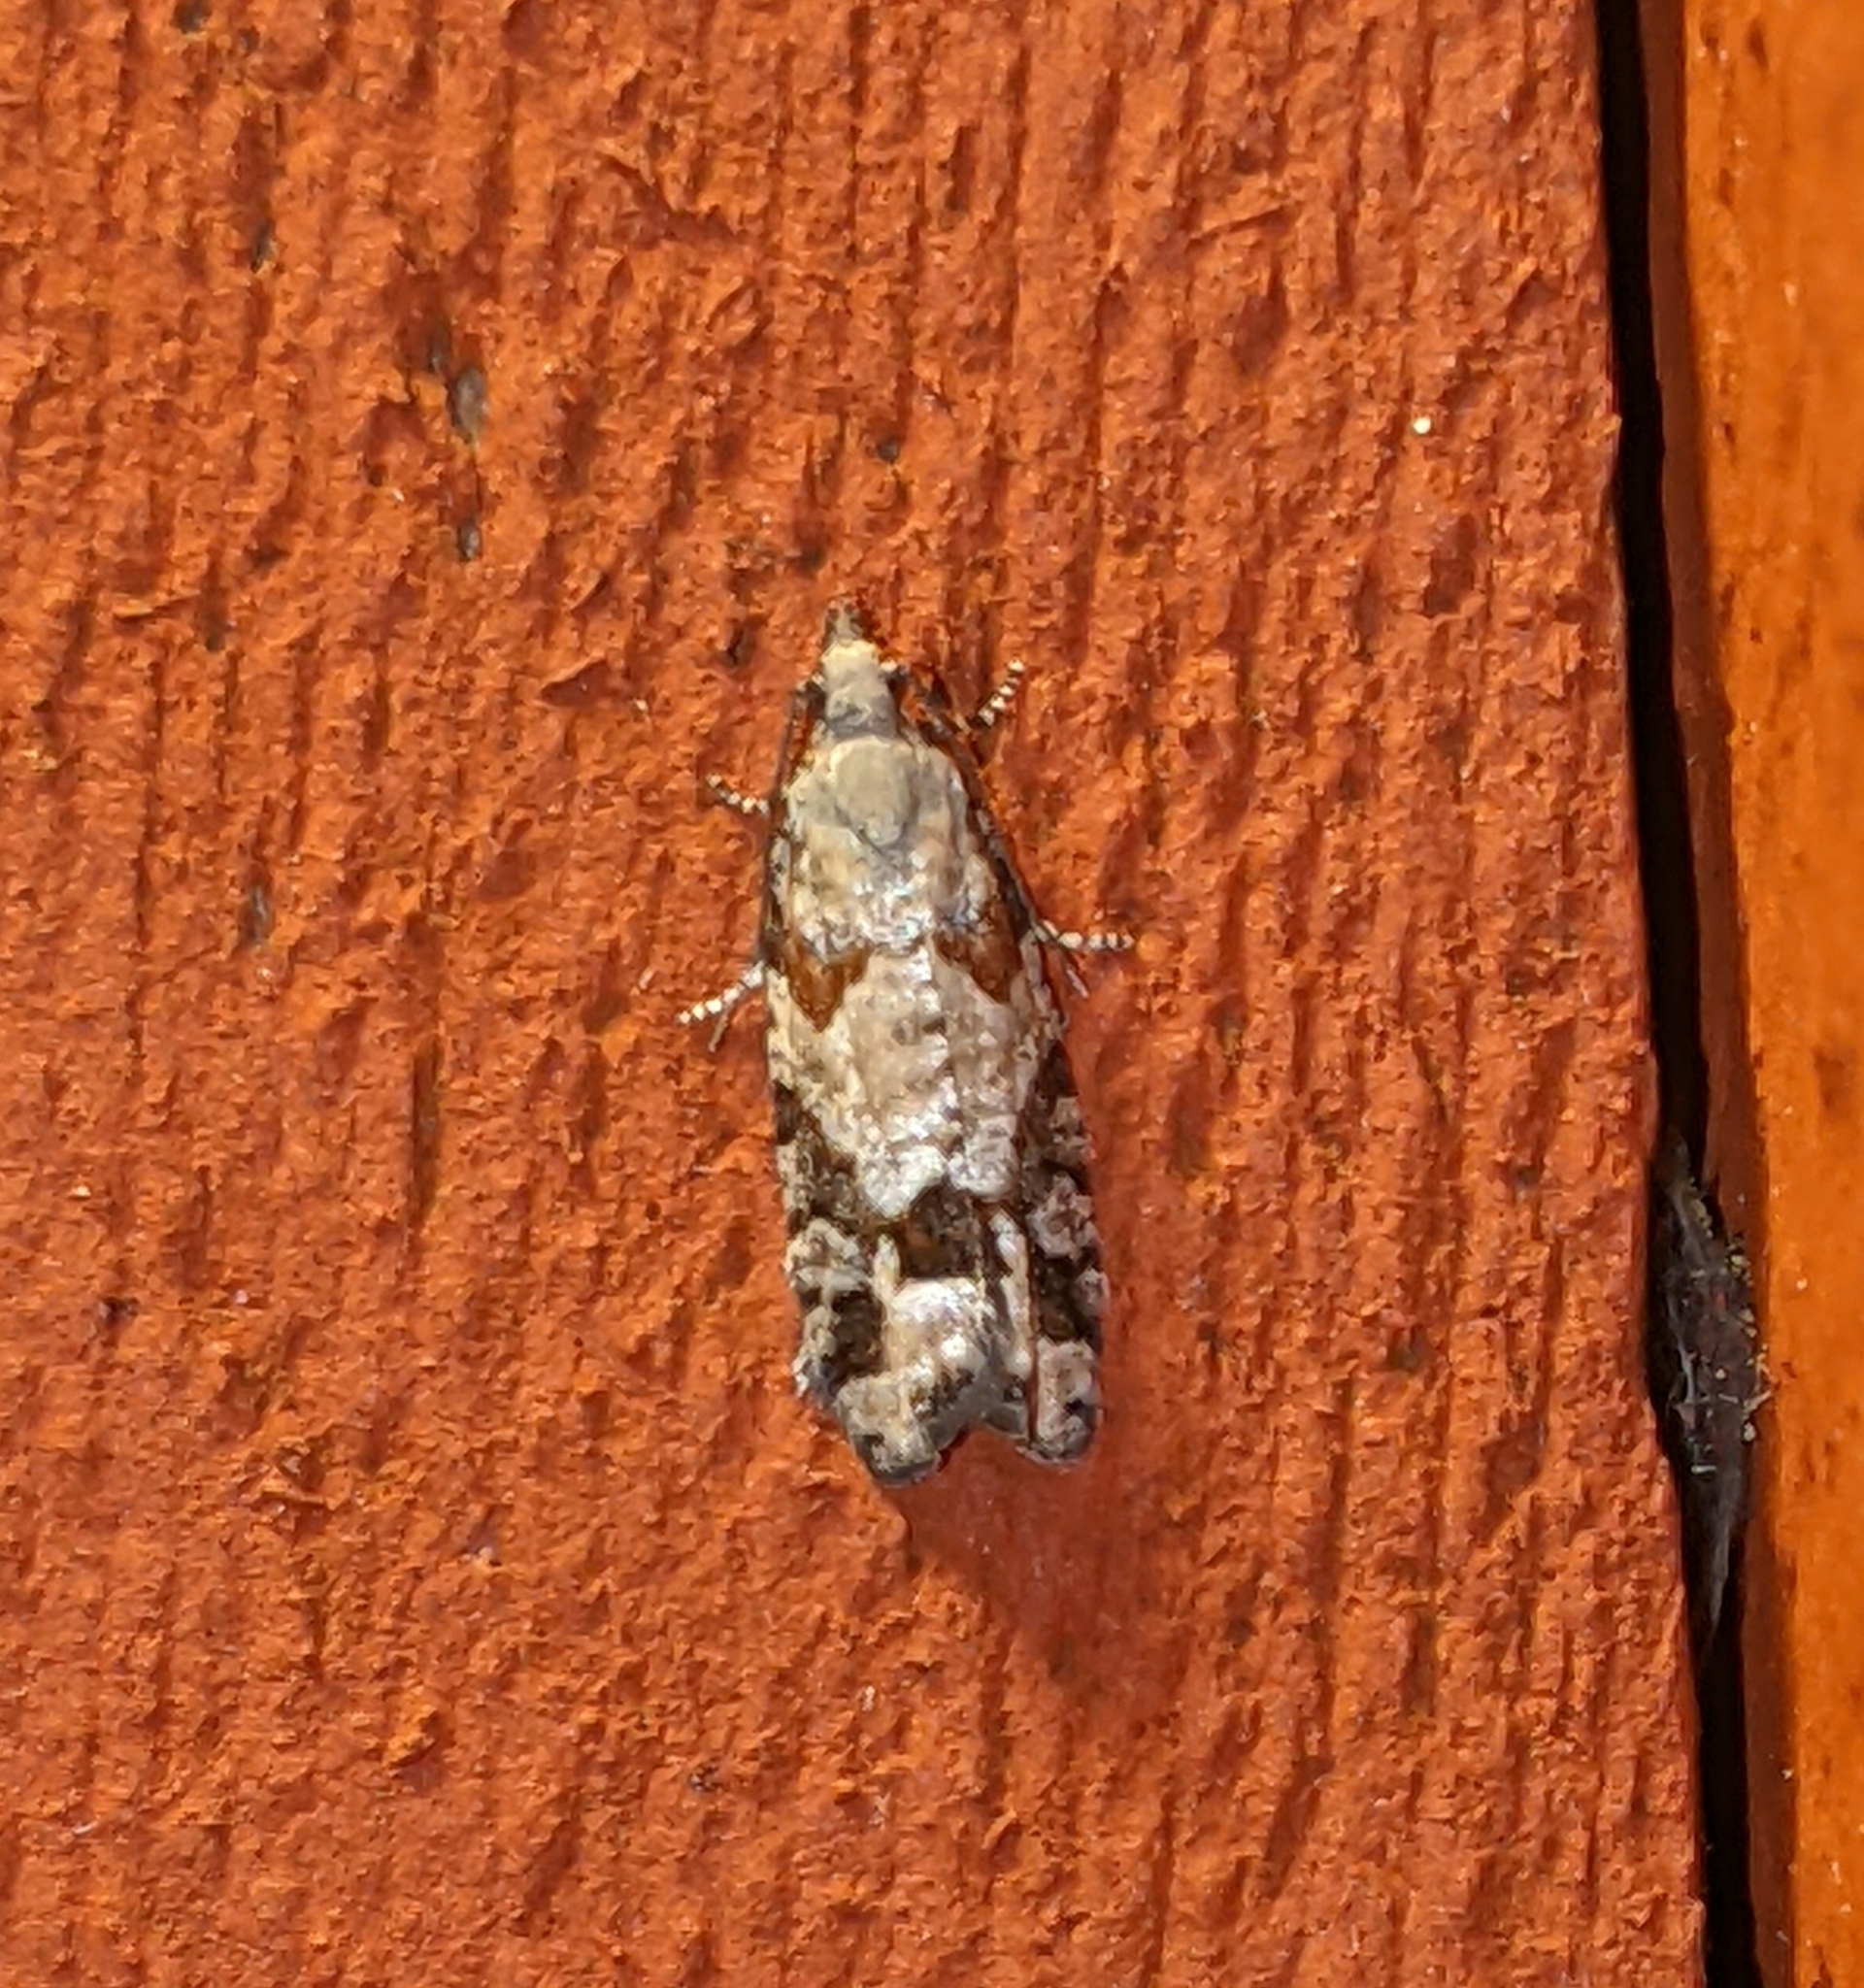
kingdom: Animalia
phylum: Arthropoda
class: Insecta
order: Lepidoptera
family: Tortricidae
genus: Epinotia
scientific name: Epinotia radicana
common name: Red-striped needleworm moth
